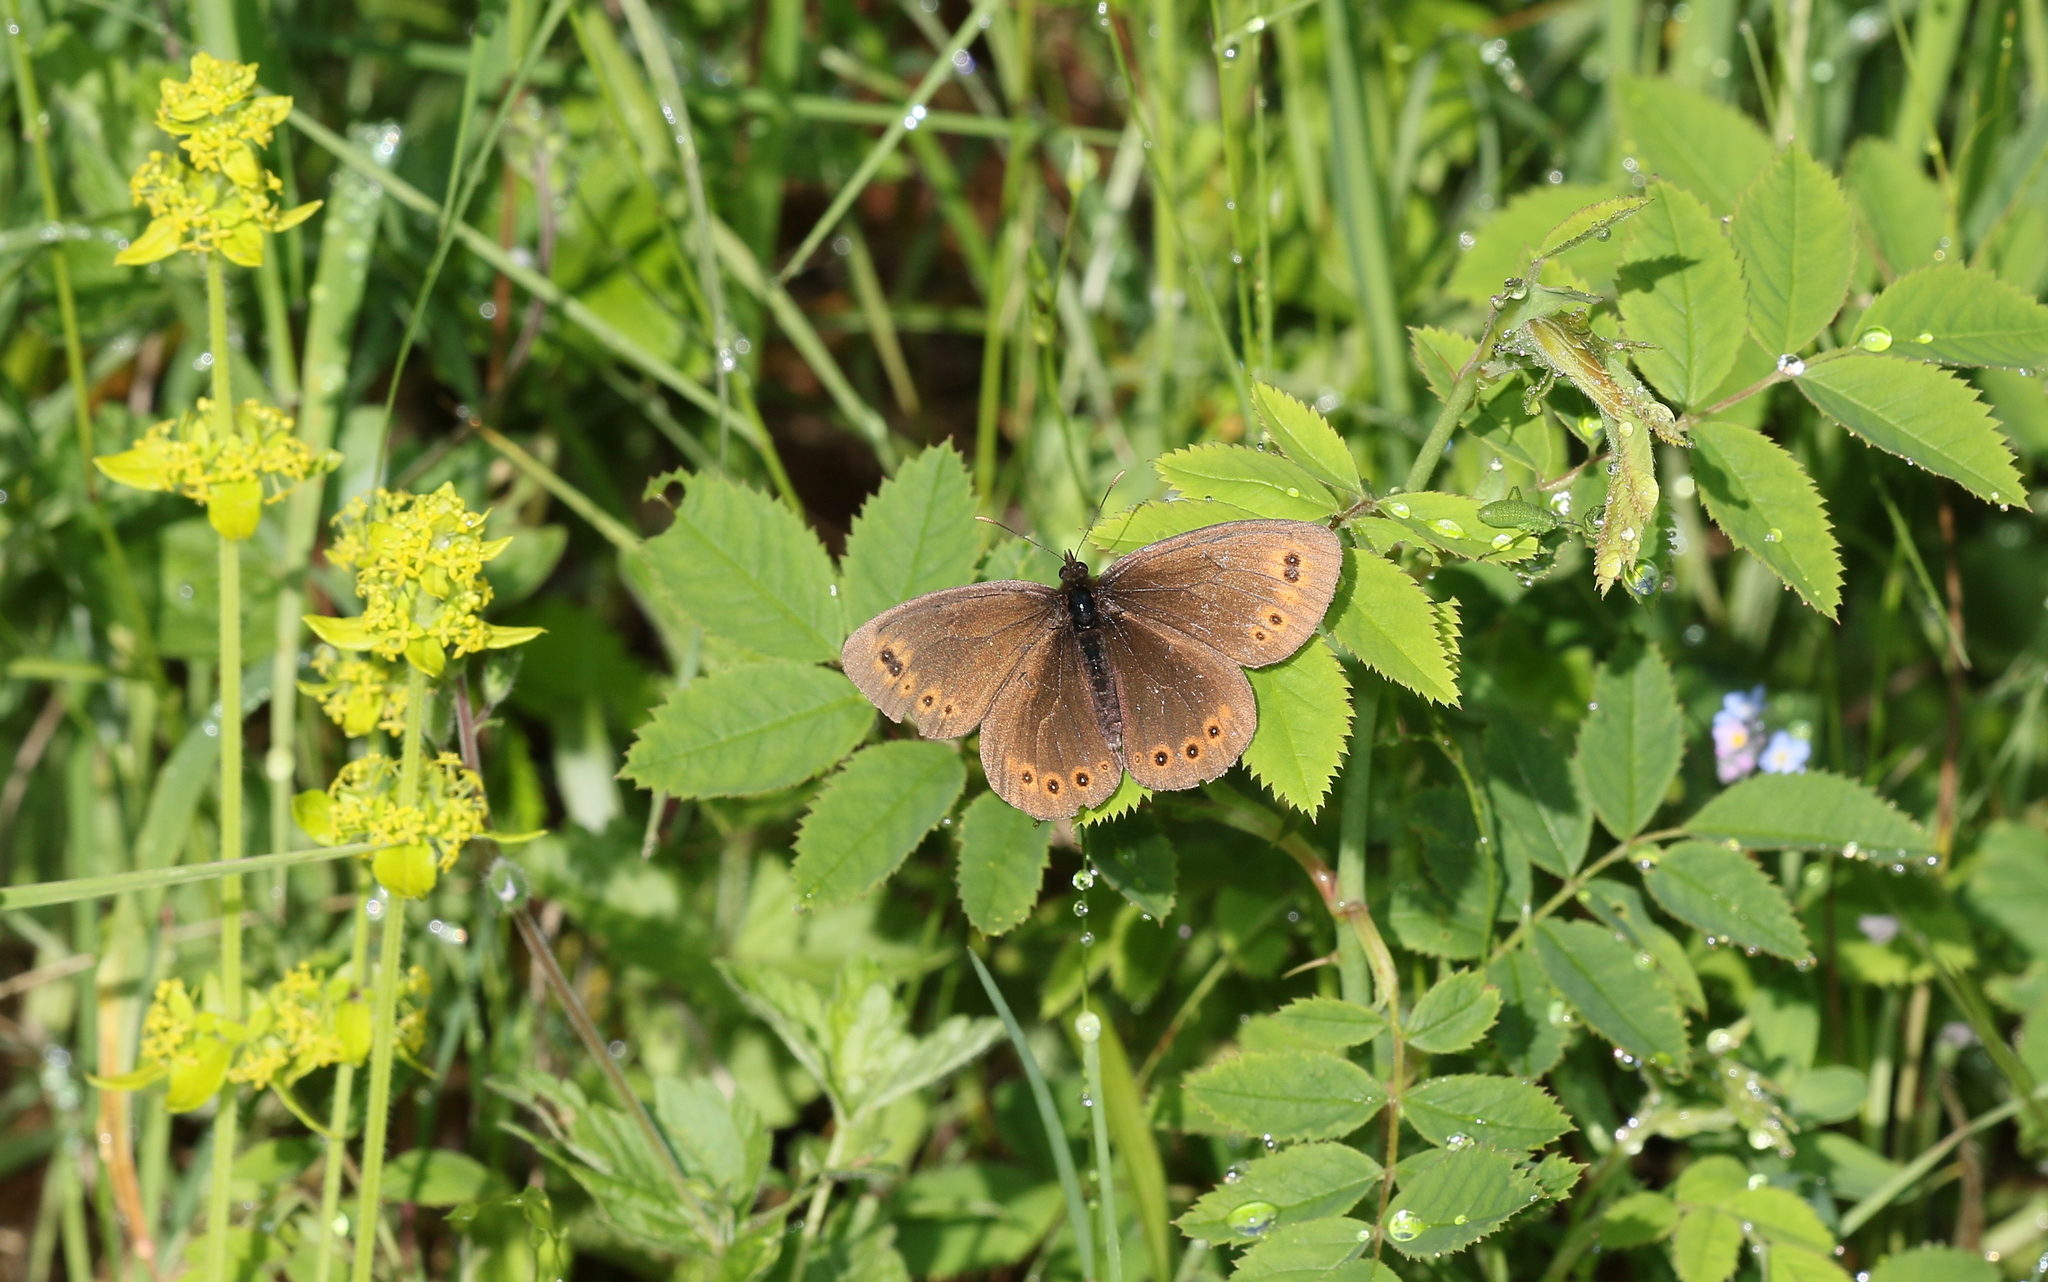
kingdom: Animalia
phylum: Arthropoda
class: Insecta
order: Lepidoptera
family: Nymphalidae
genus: Erebia
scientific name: Erebia medusa
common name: Woodland ringlet
